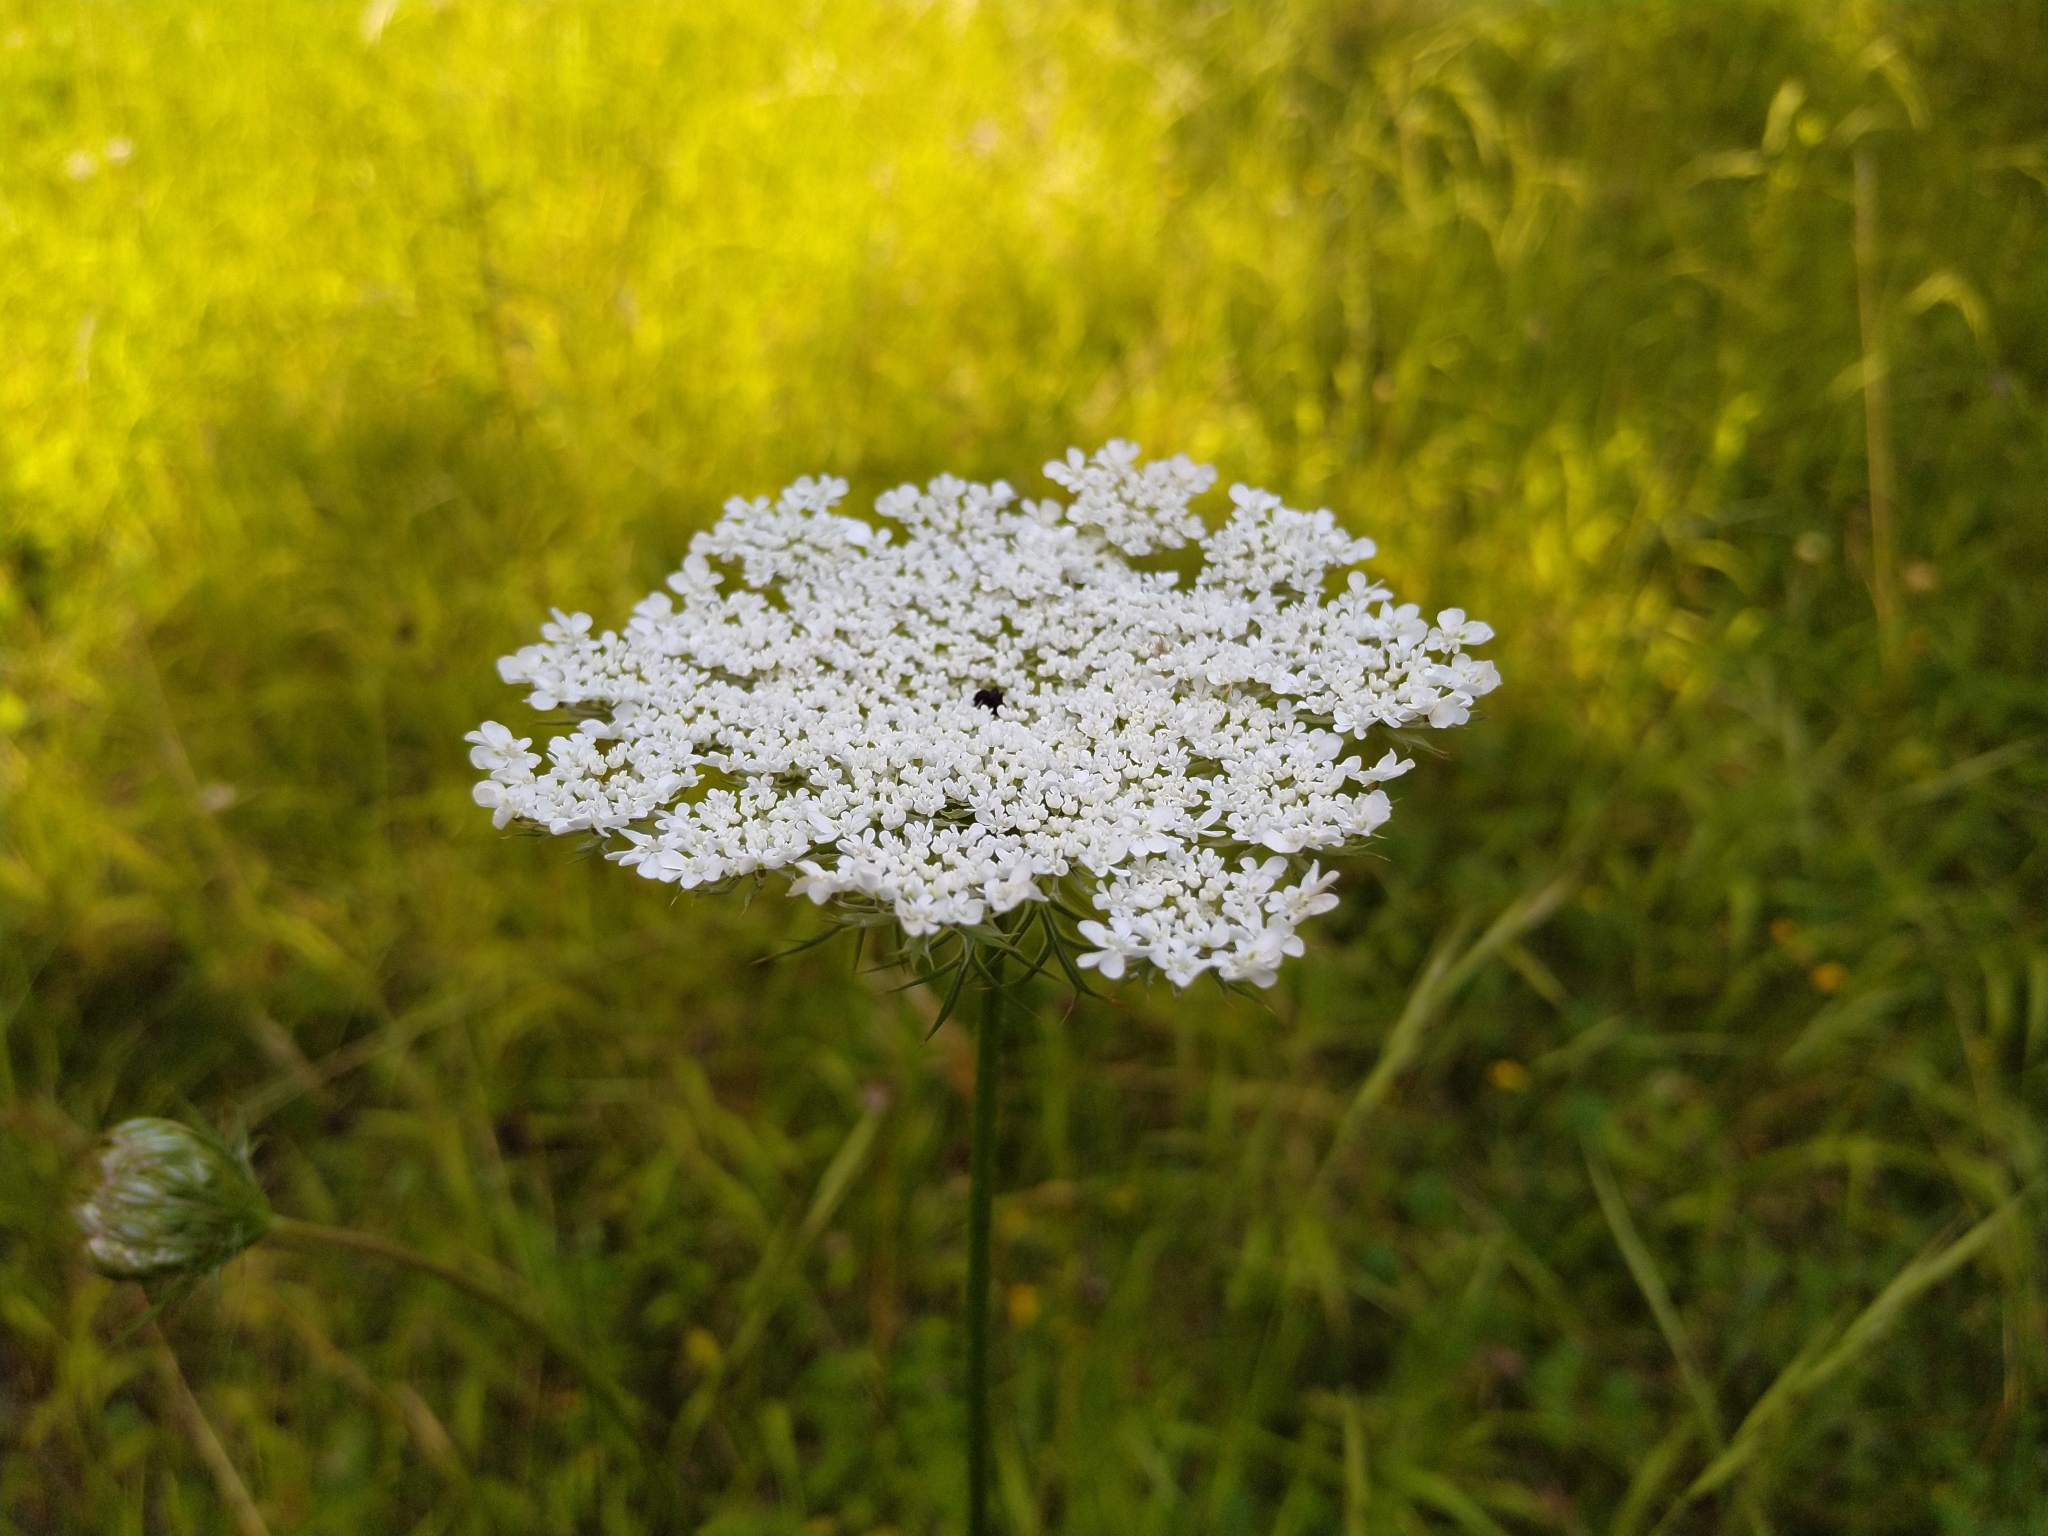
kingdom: Plantae
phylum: Tracheophyta
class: Magnoliopsida
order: Apiales
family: Apiaceae
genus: Daucus
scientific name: Daucus carota
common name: Wild carrot
